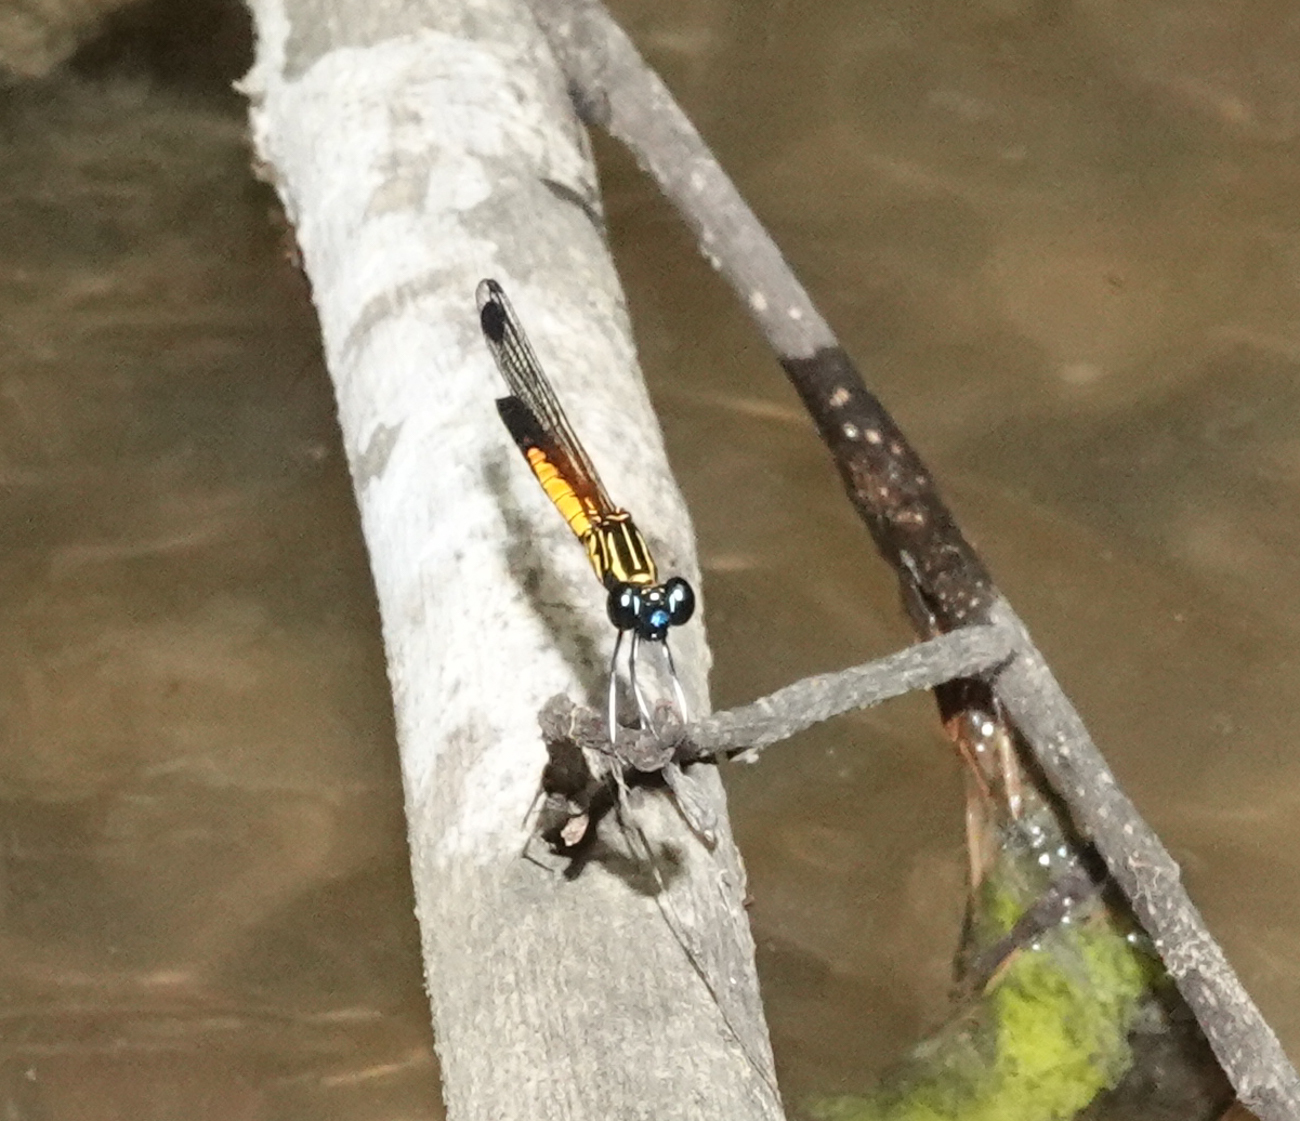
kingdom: Animalia
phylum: Arthropoda
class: Insecta
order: Odonata
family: Chlorocyphidae
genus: Libellago
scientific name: Libellago lineata
